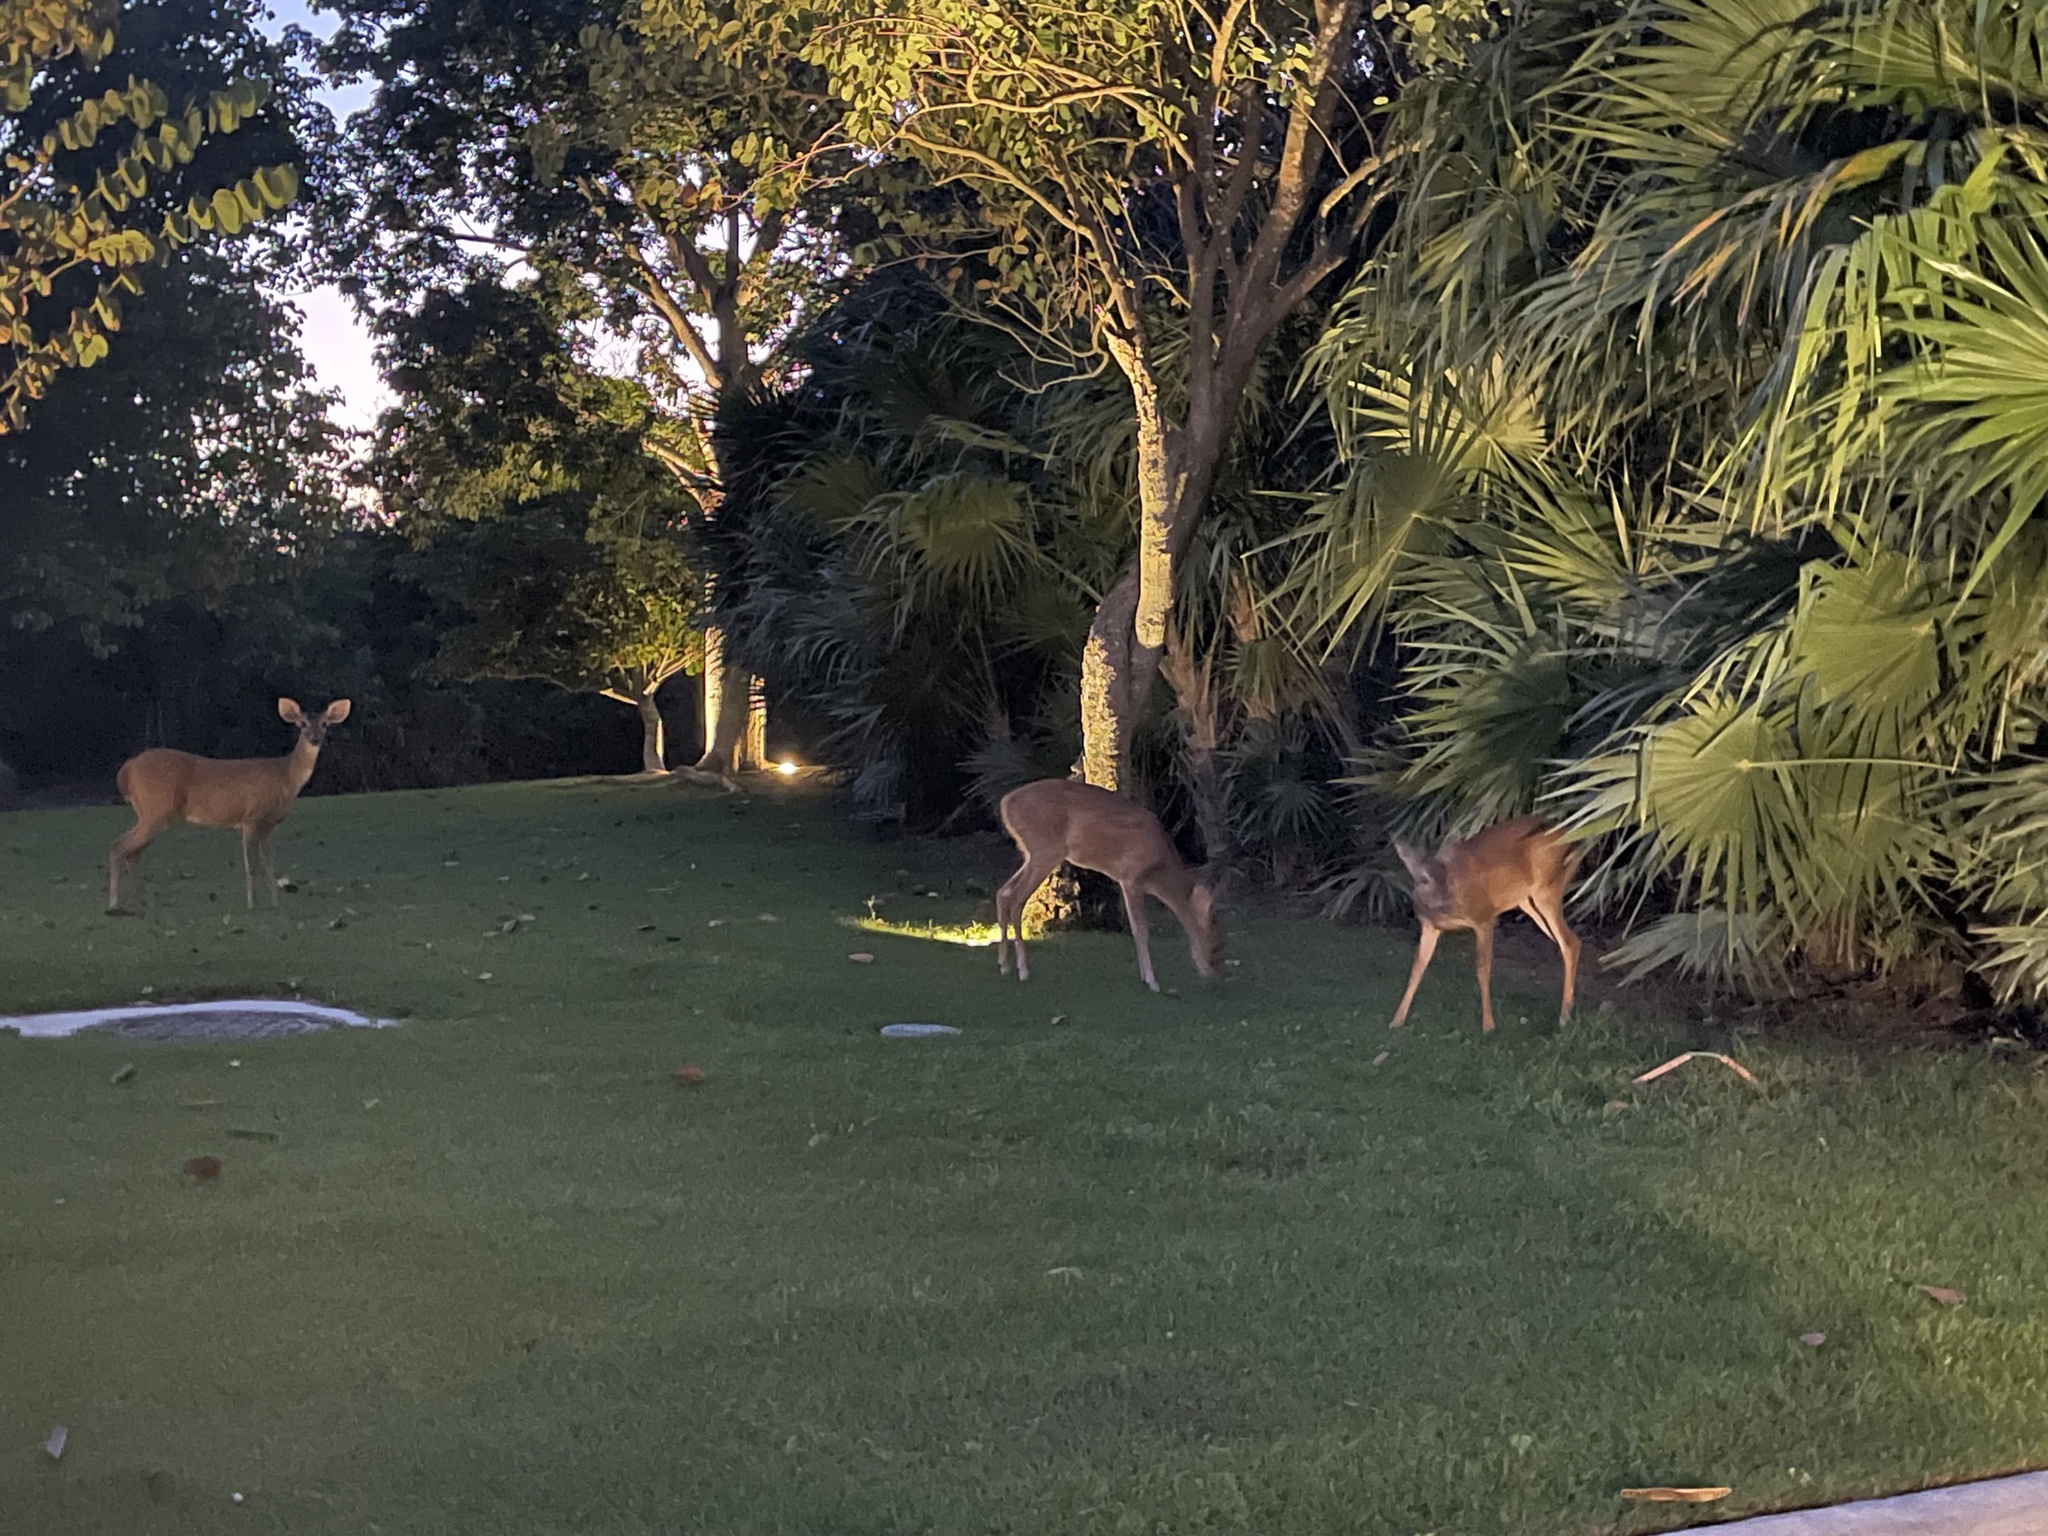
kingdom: Animalia
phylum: Chordata
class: Mammalia
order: Artiodactyla
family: Cervidae
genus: Odocoileus
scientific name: Odocoileus virginianus
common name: White-tailed deer
